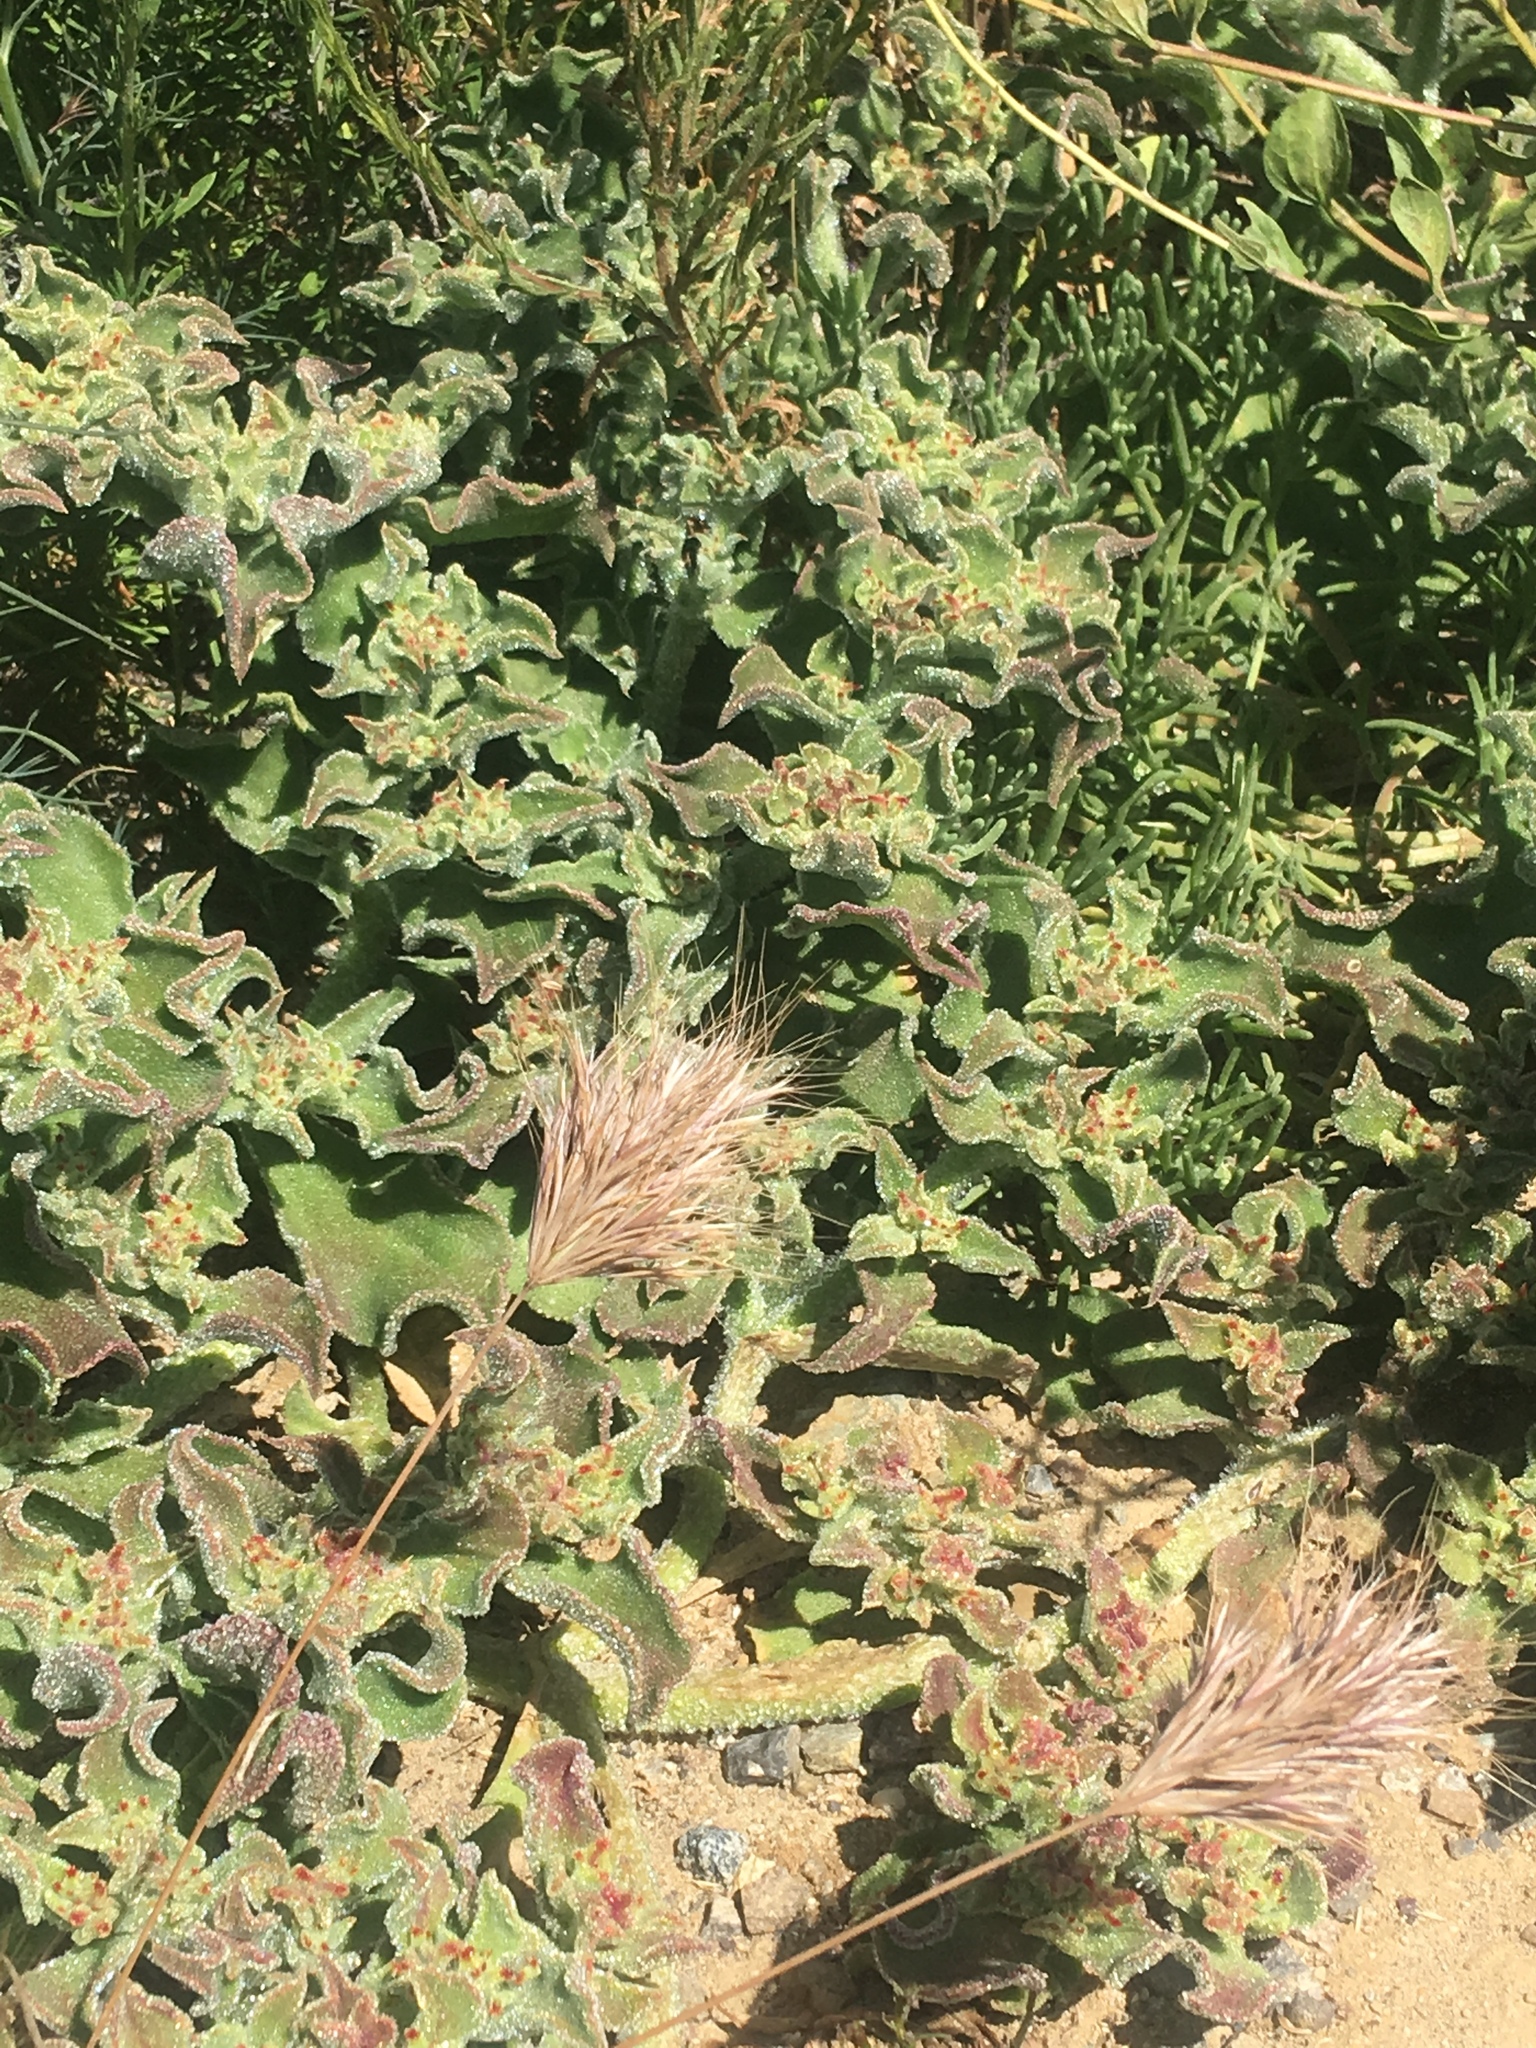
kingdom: Plantae
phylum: Tracheophyta
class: Magnoliopsida
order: Caryophyllales
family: Aizoaceae
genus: Mesembryanthemum
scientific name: Mesembryanthemum crystallinum
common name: Common iceplant
